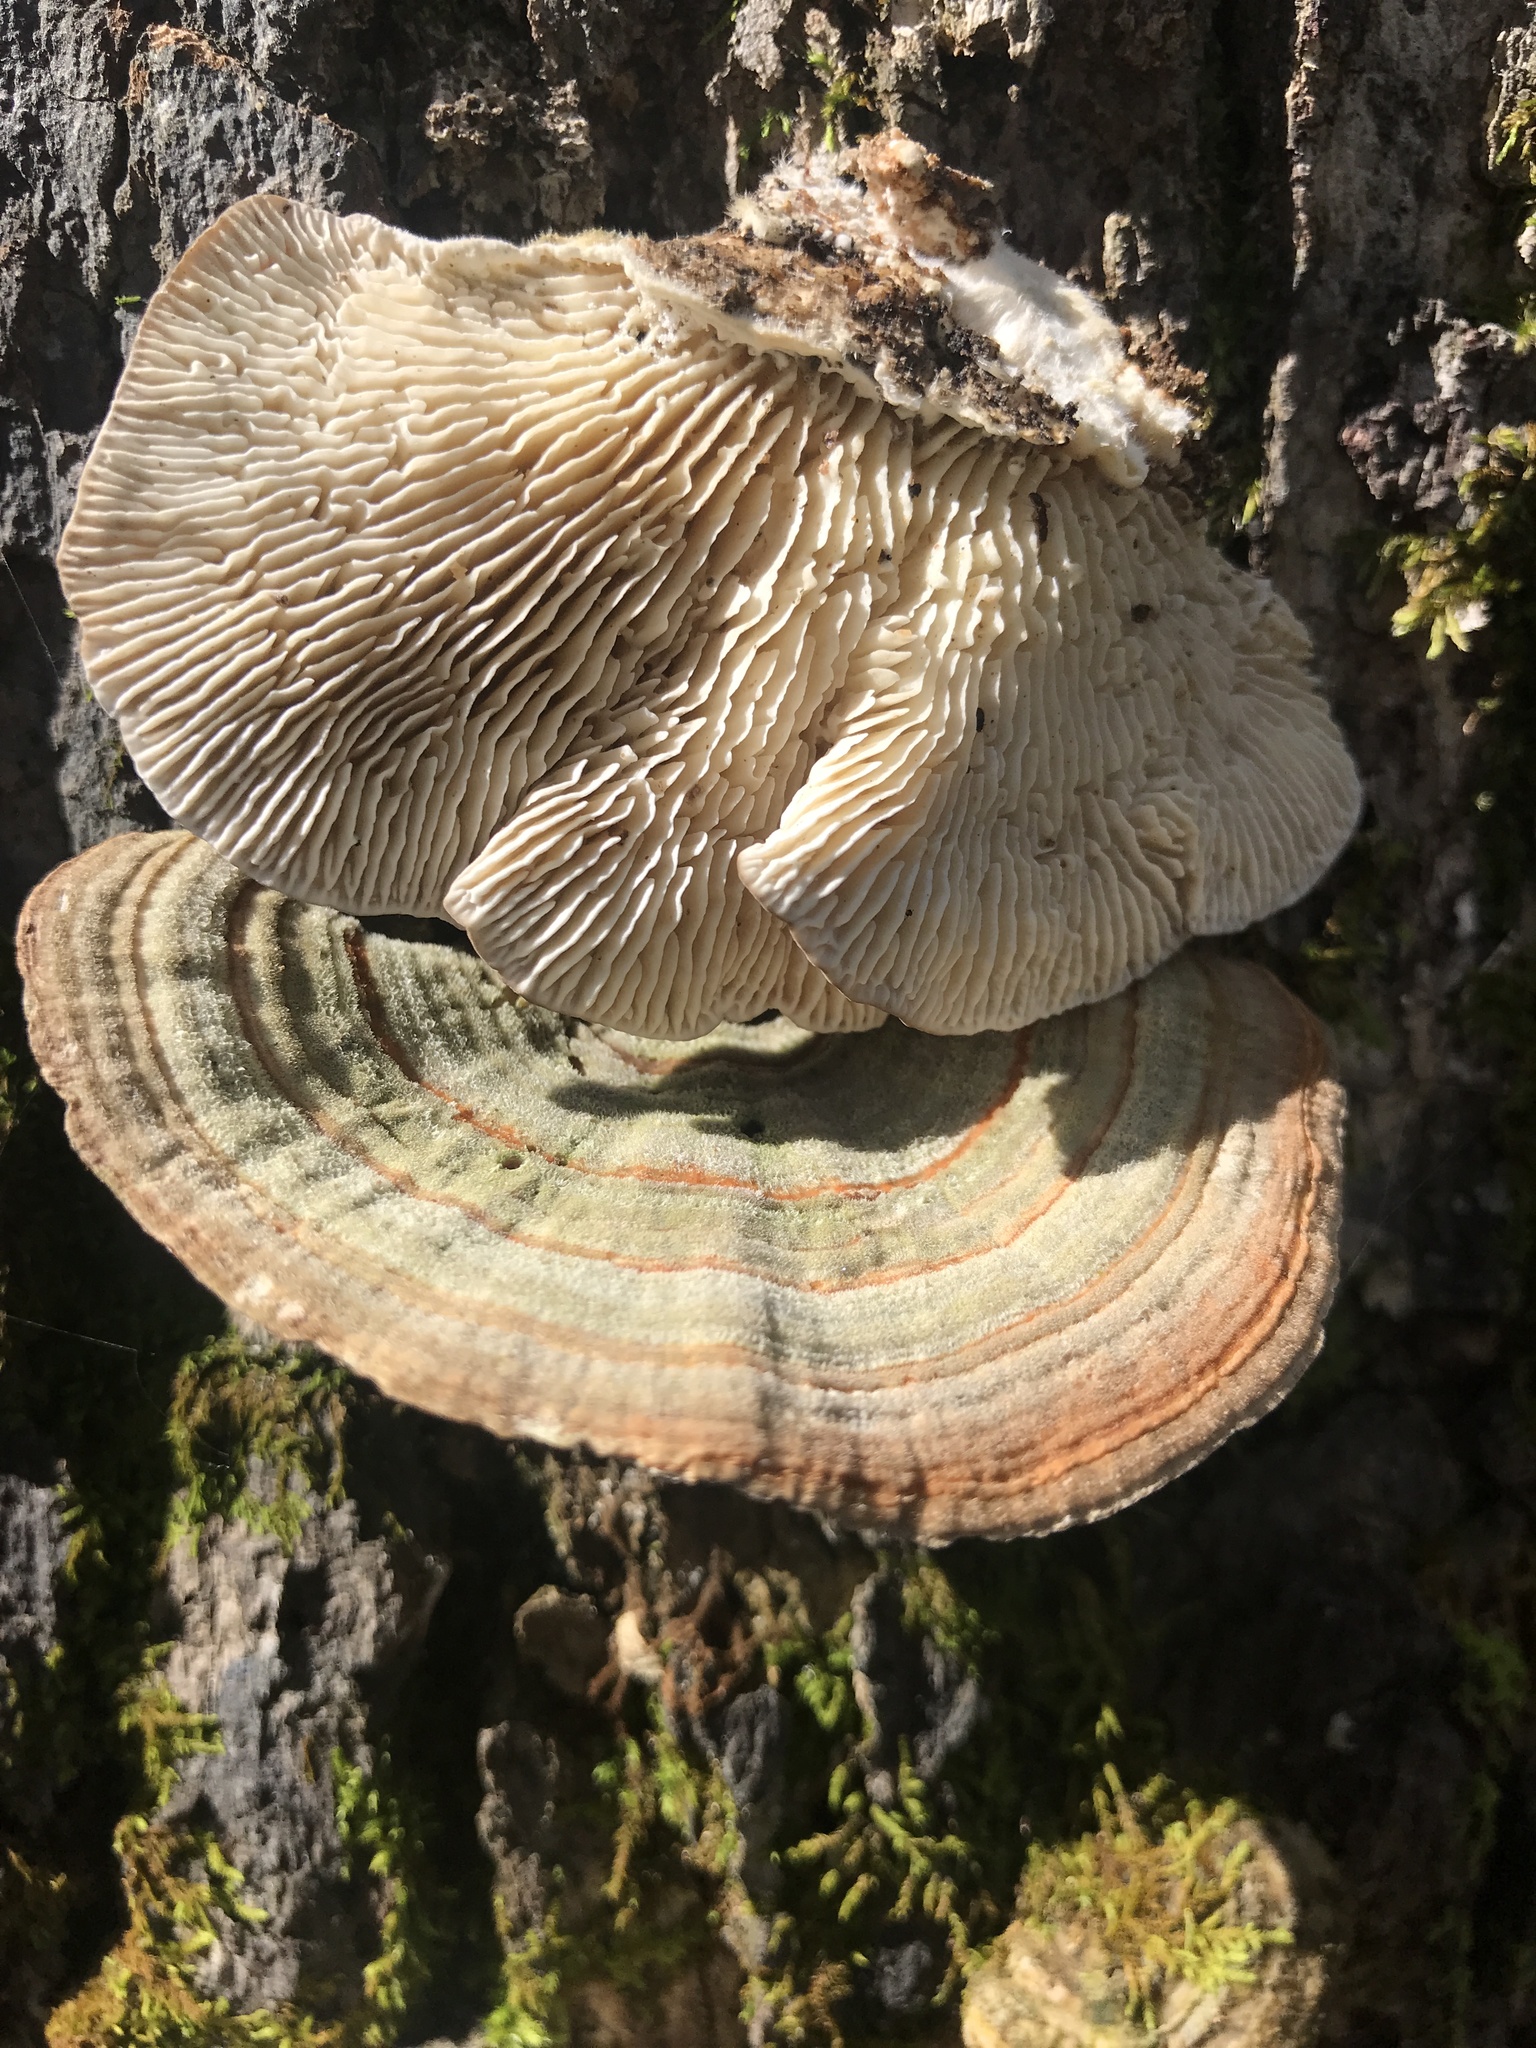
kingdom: Fungi
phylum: Basidiomycota
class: Agaricomycetes
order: Polyporales
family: Polyporaceae
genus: Lenzites
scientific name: Lenzites betulinus
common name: Birch mazegill
